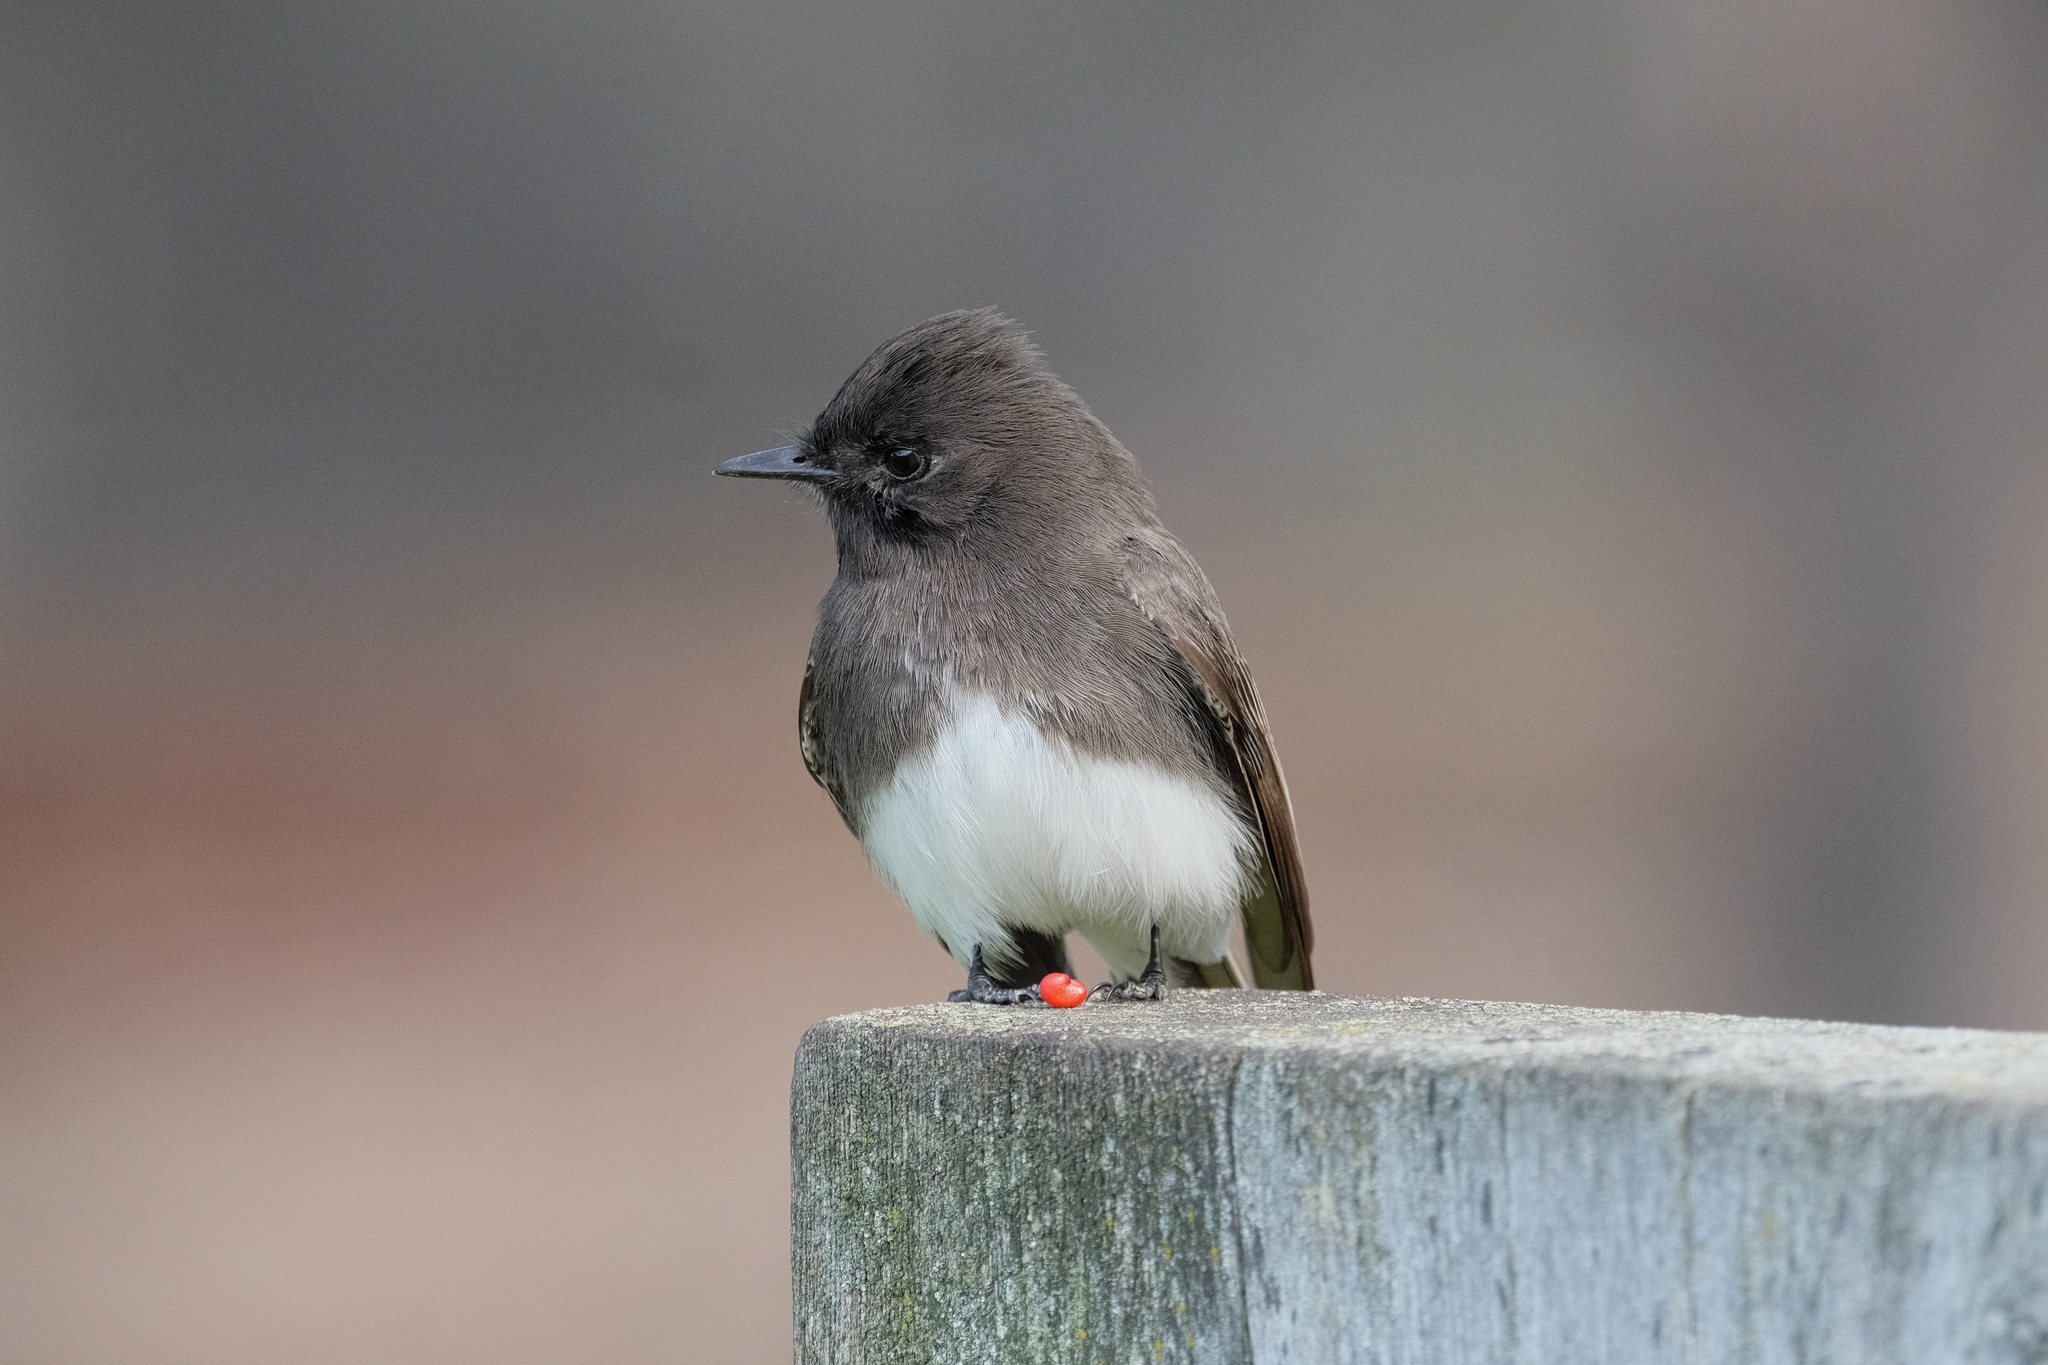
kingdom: Animalia
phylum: Chordata
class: Aves
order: Passeriformes
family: Tyrannidae
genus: Sayornis
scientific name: Sayornis nigricans
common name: Black phoebe
